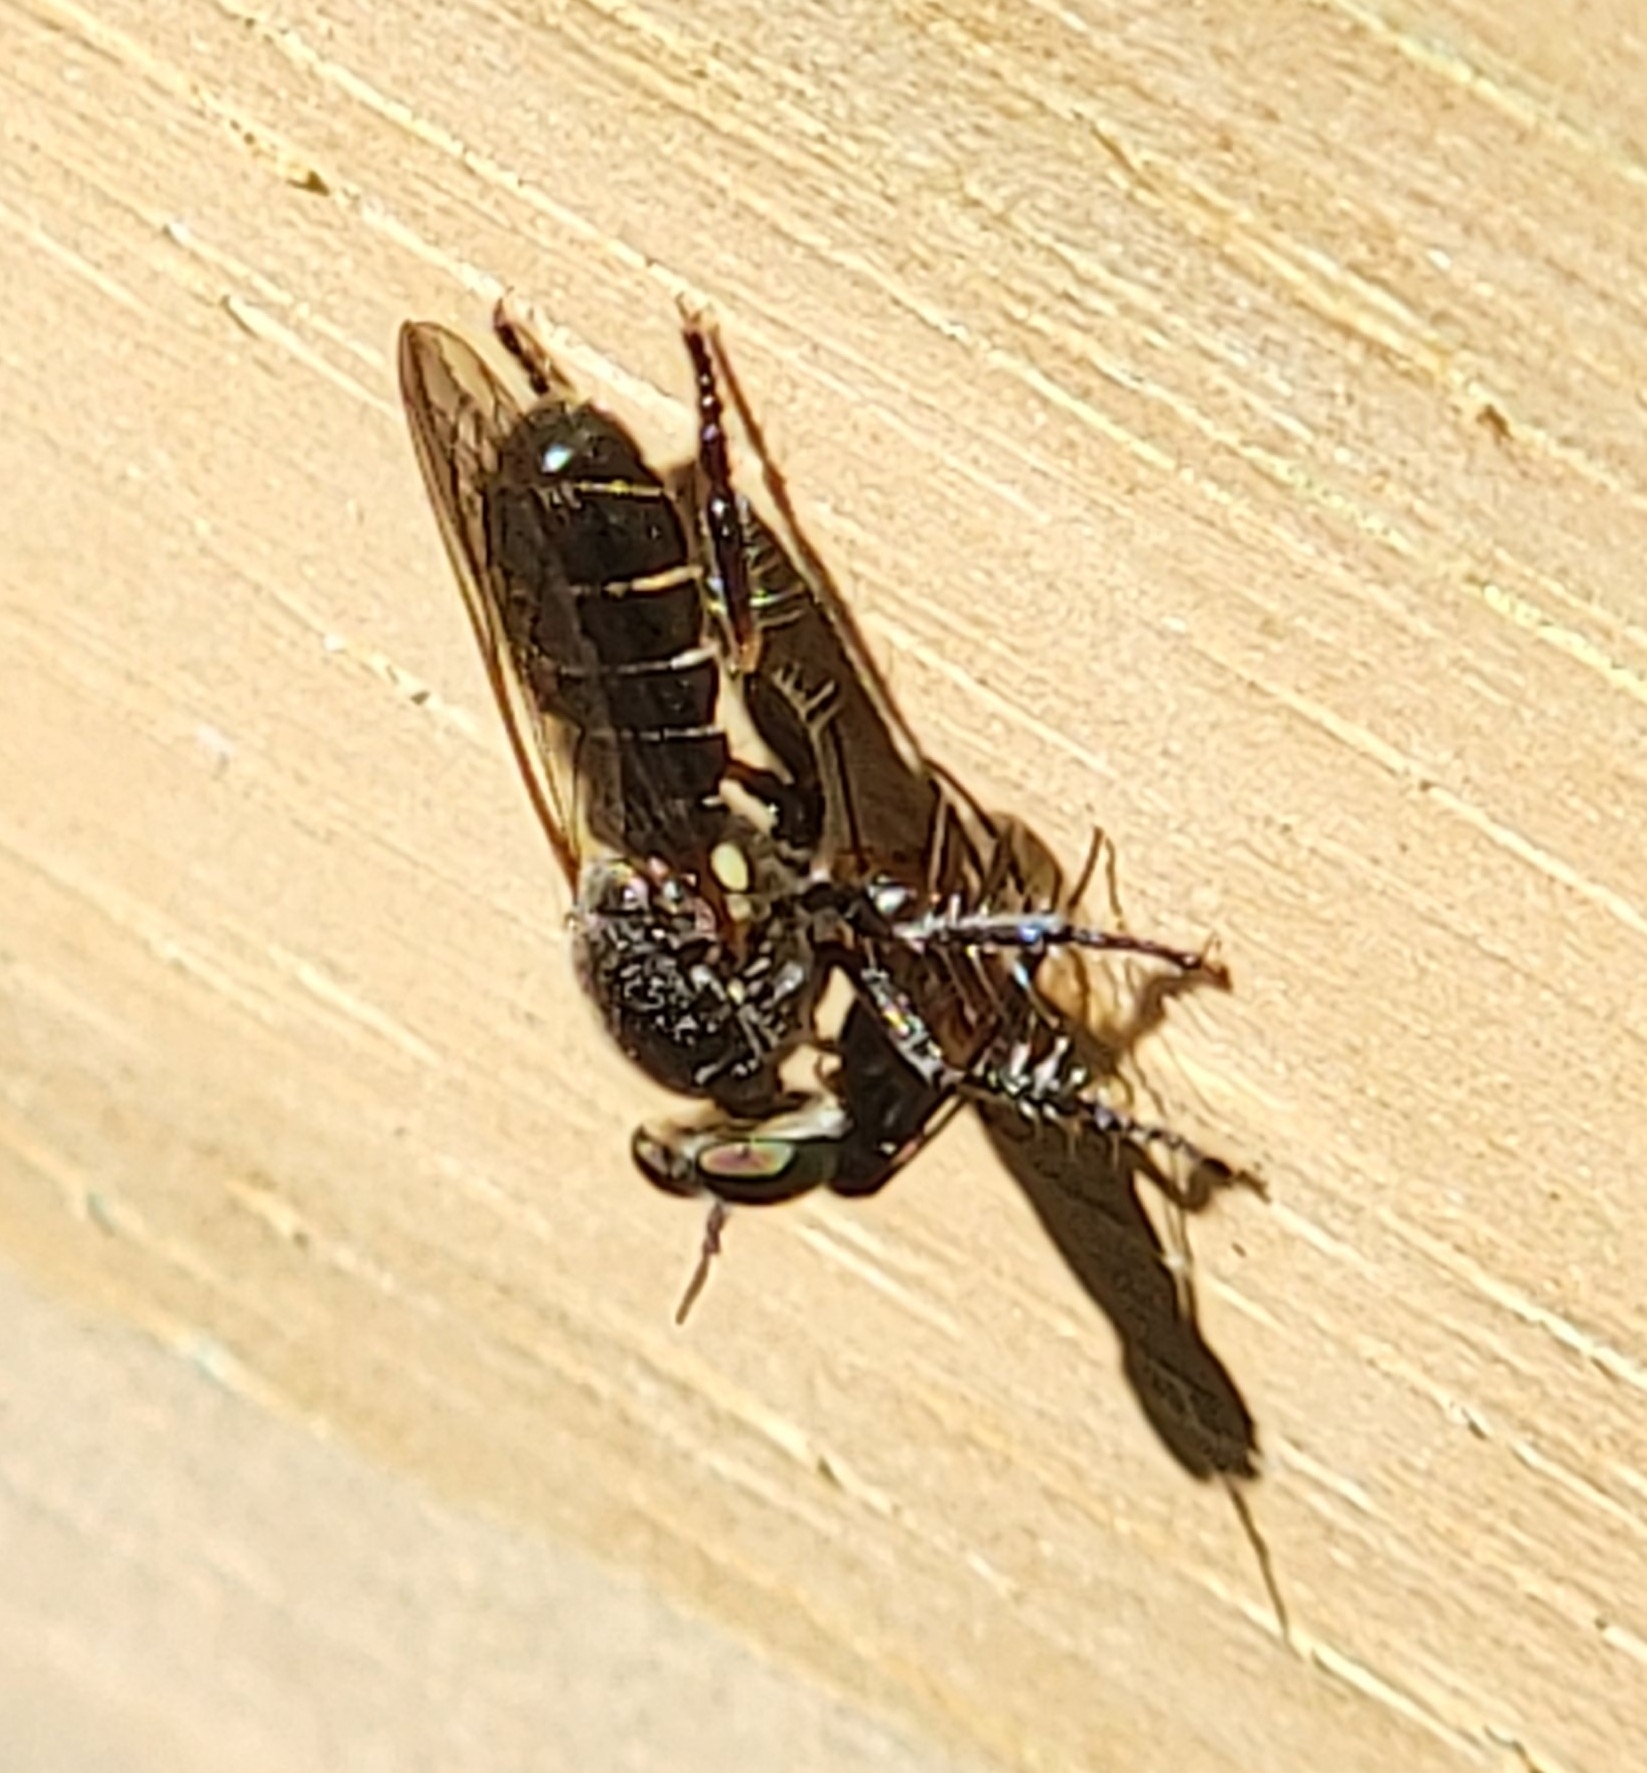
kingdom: Animalia
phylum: Arthropoda
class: Insecta
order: Diptera
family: Asilidae
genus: Atomosia
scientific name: Atomosia puella
